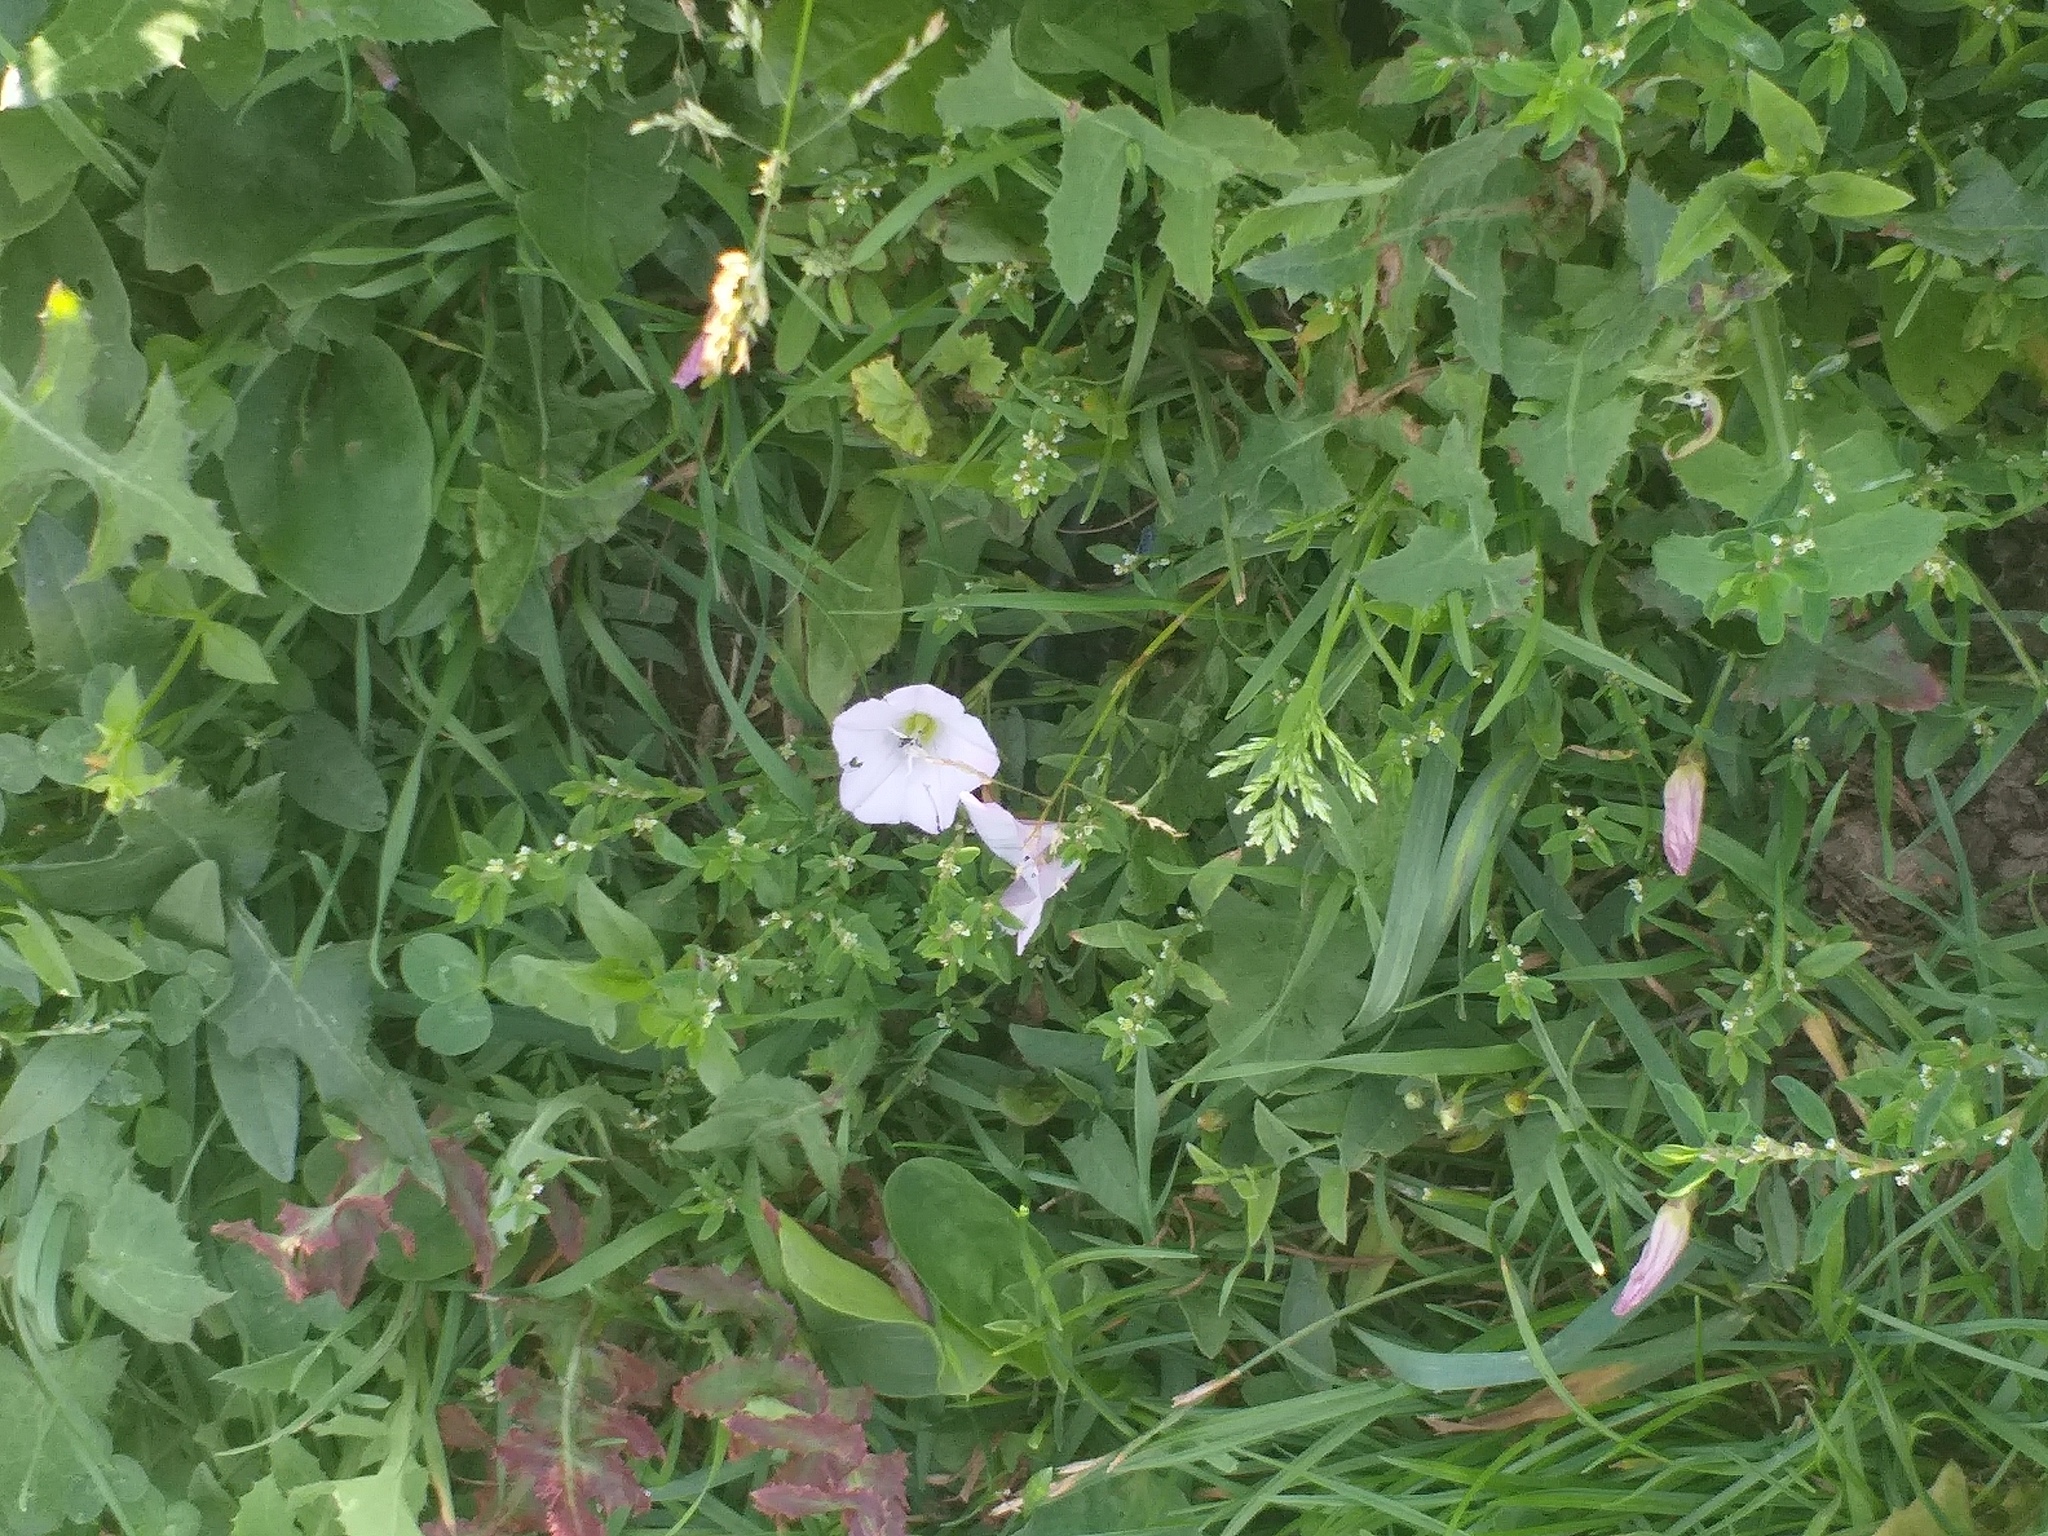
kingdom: Plantae
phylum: Tracheophyta
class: Magnoliopsida
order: Solanales
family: Convolvulaceae
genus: Convolvulus
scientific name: Convolvulus arvensis
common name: Field bindweed
